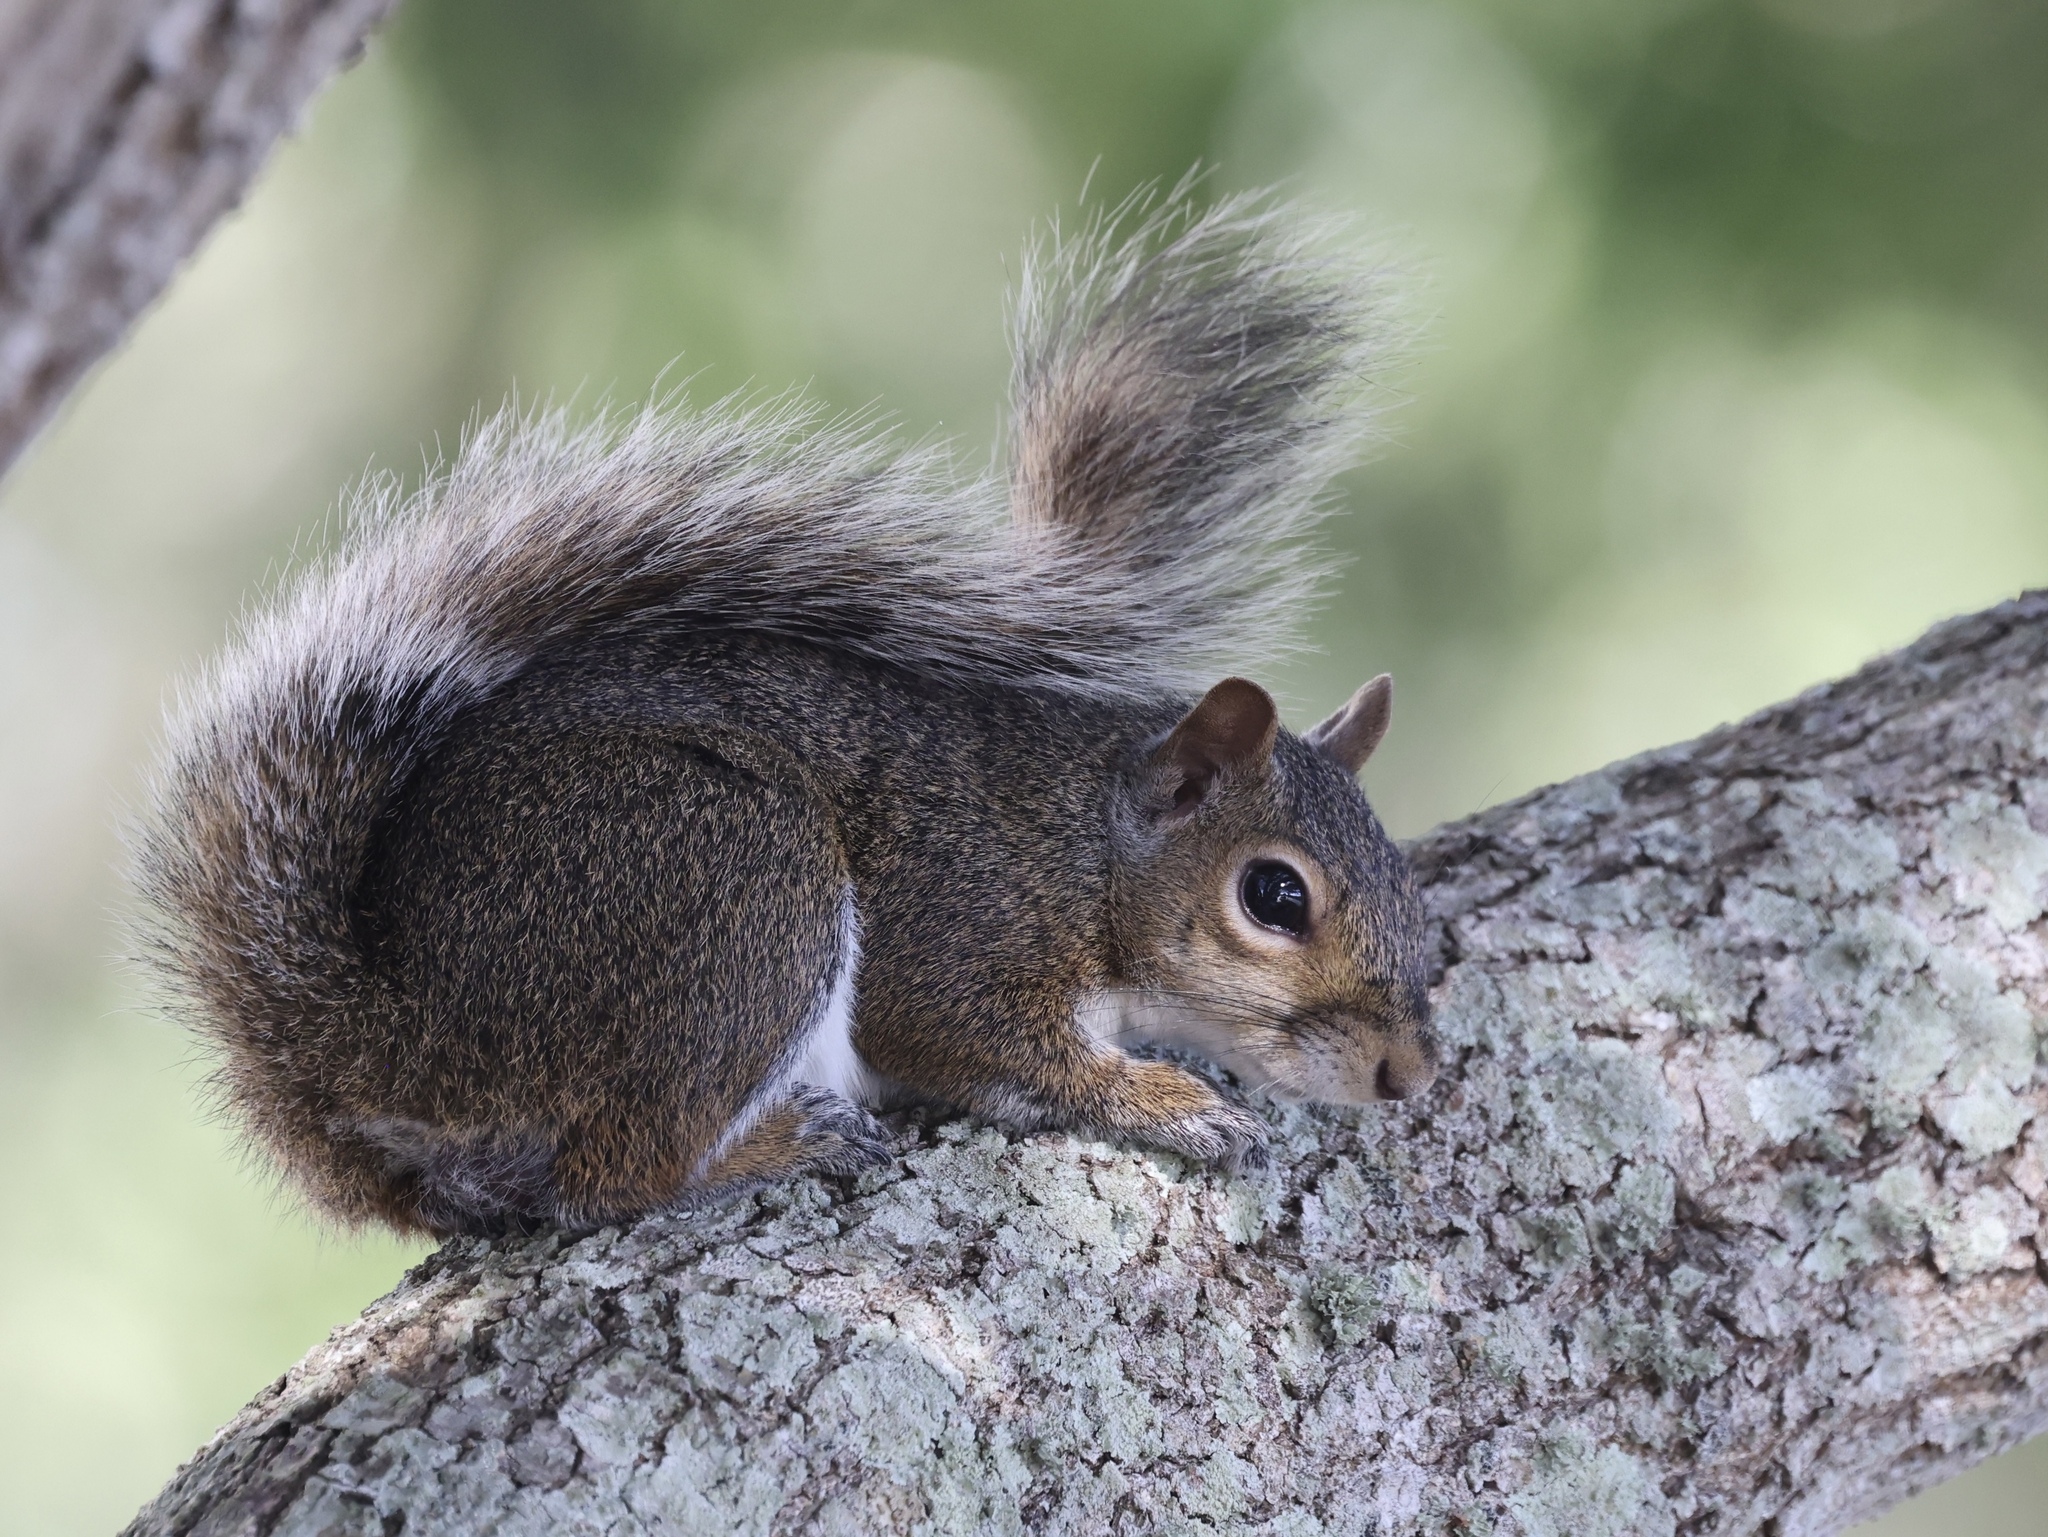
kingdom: Animalia
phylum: Chordata
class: Mammalia
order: Rodentia
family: Sciuridae
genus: Sciurus
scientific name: Sciurus carolinensis
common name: Eastern gray squirrel
